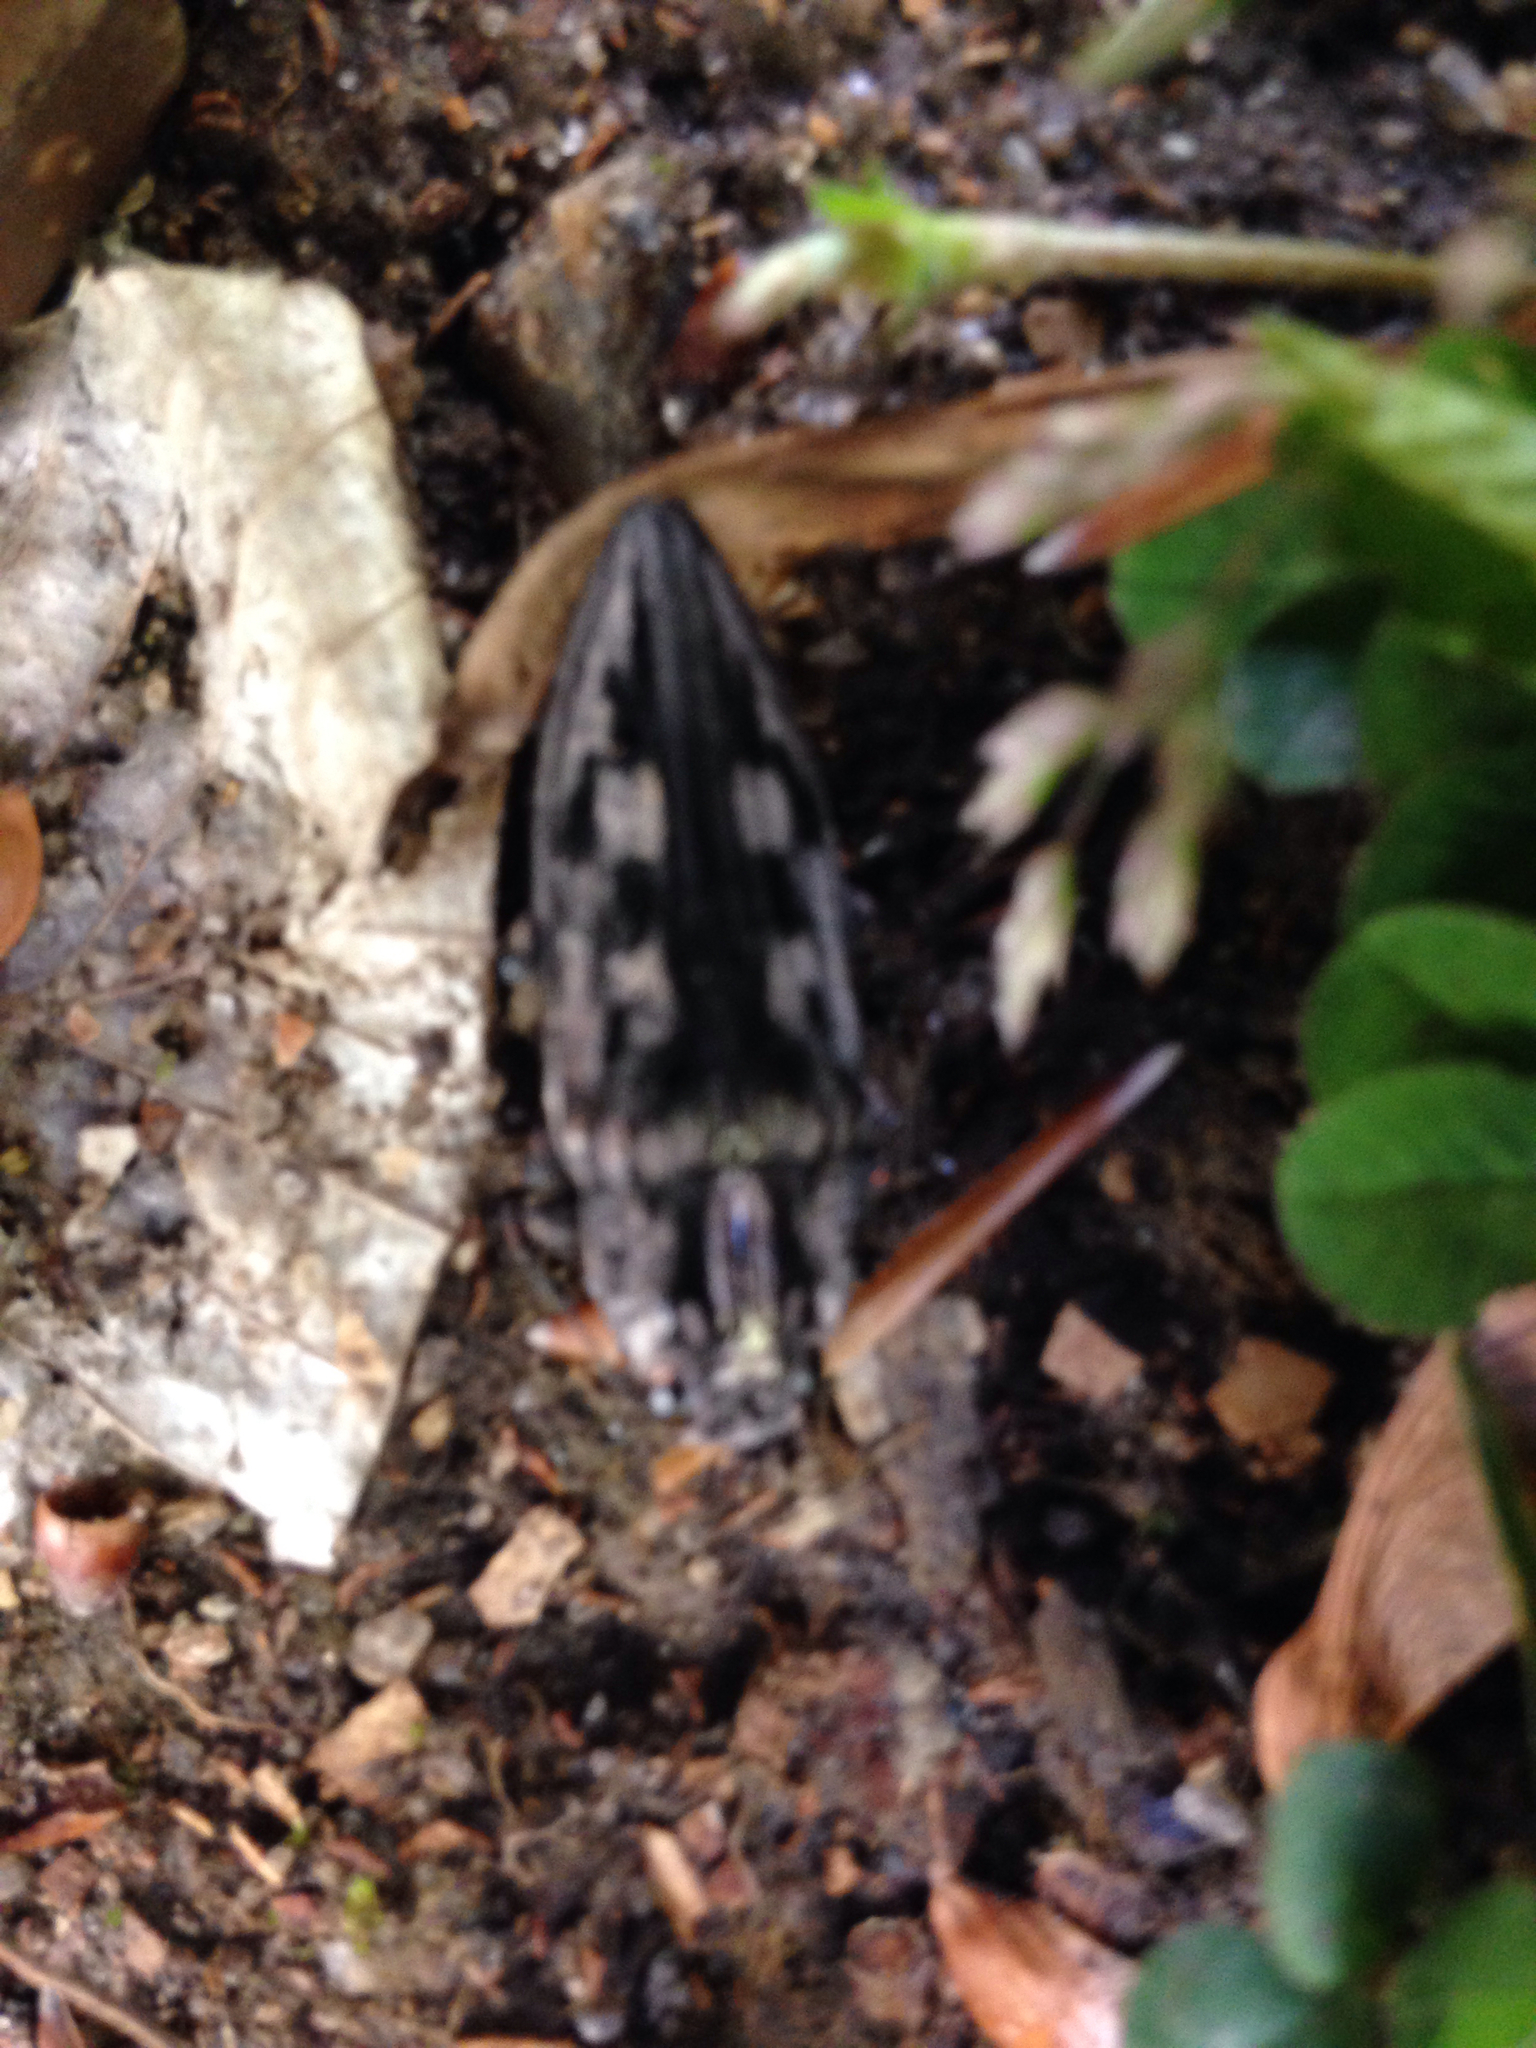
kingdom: Animalia
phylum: Arthropoda
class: Insecta
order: Coleoptera
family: Buprestidae
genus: Chalcophora
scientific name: Chalcophora virginiensis
